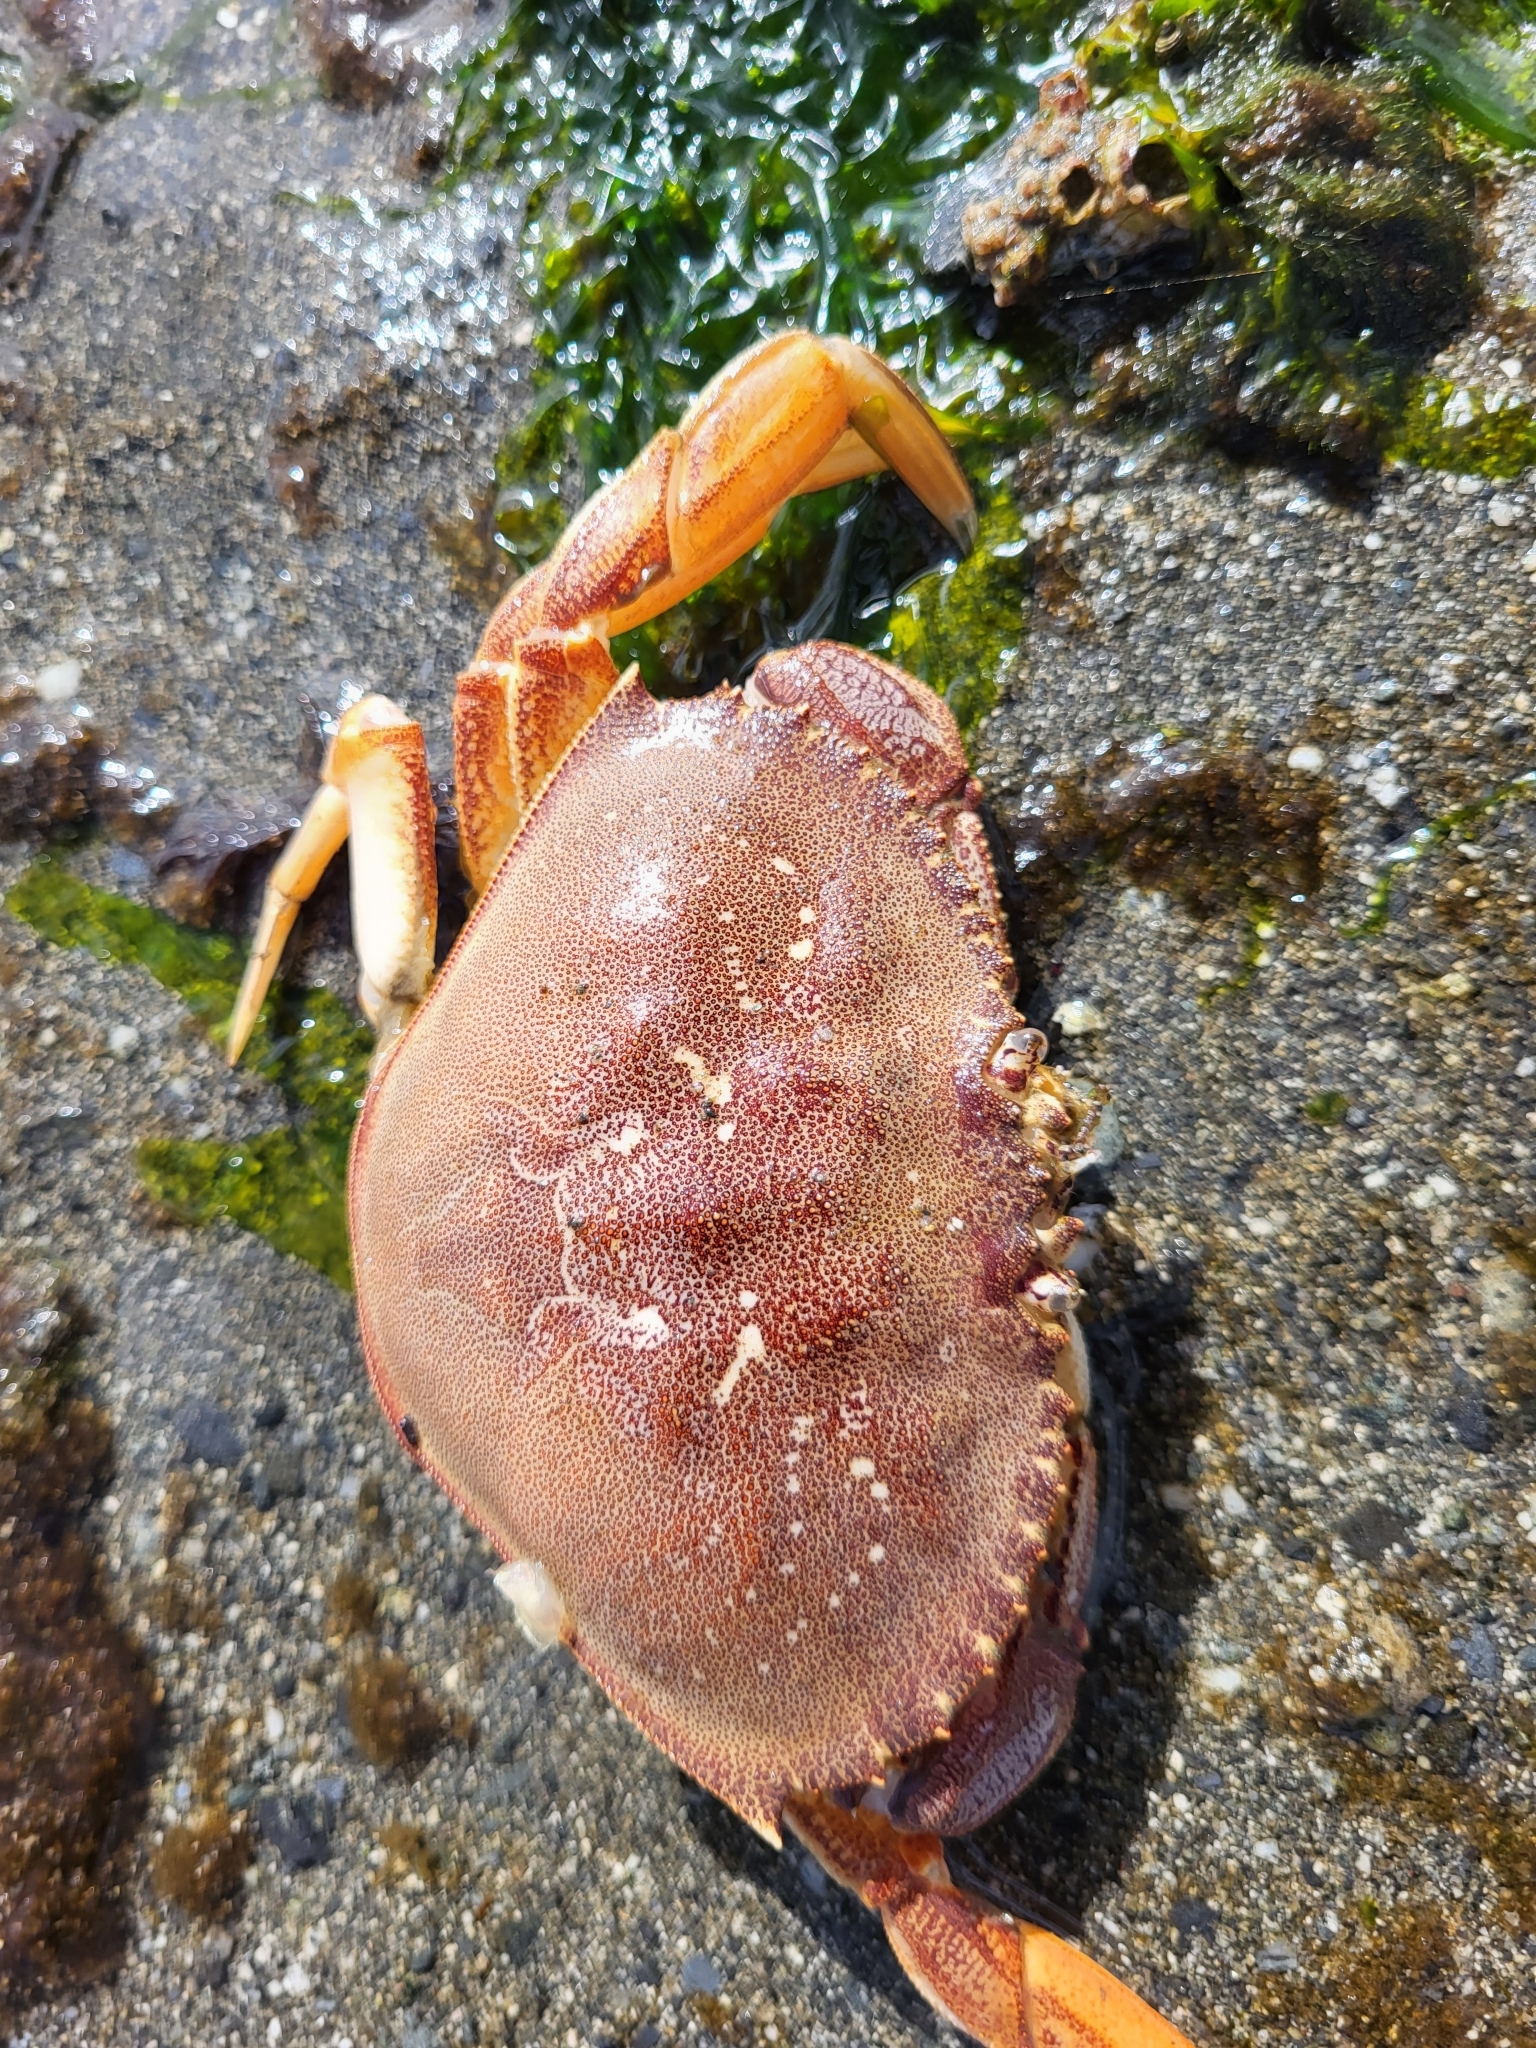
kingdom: Animalia
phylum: Arthropoda
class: Malacostraca
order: Decapoda
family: Cancridae
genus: Metacarcinus
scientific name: Metacarcinus magister
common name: Californian crab
